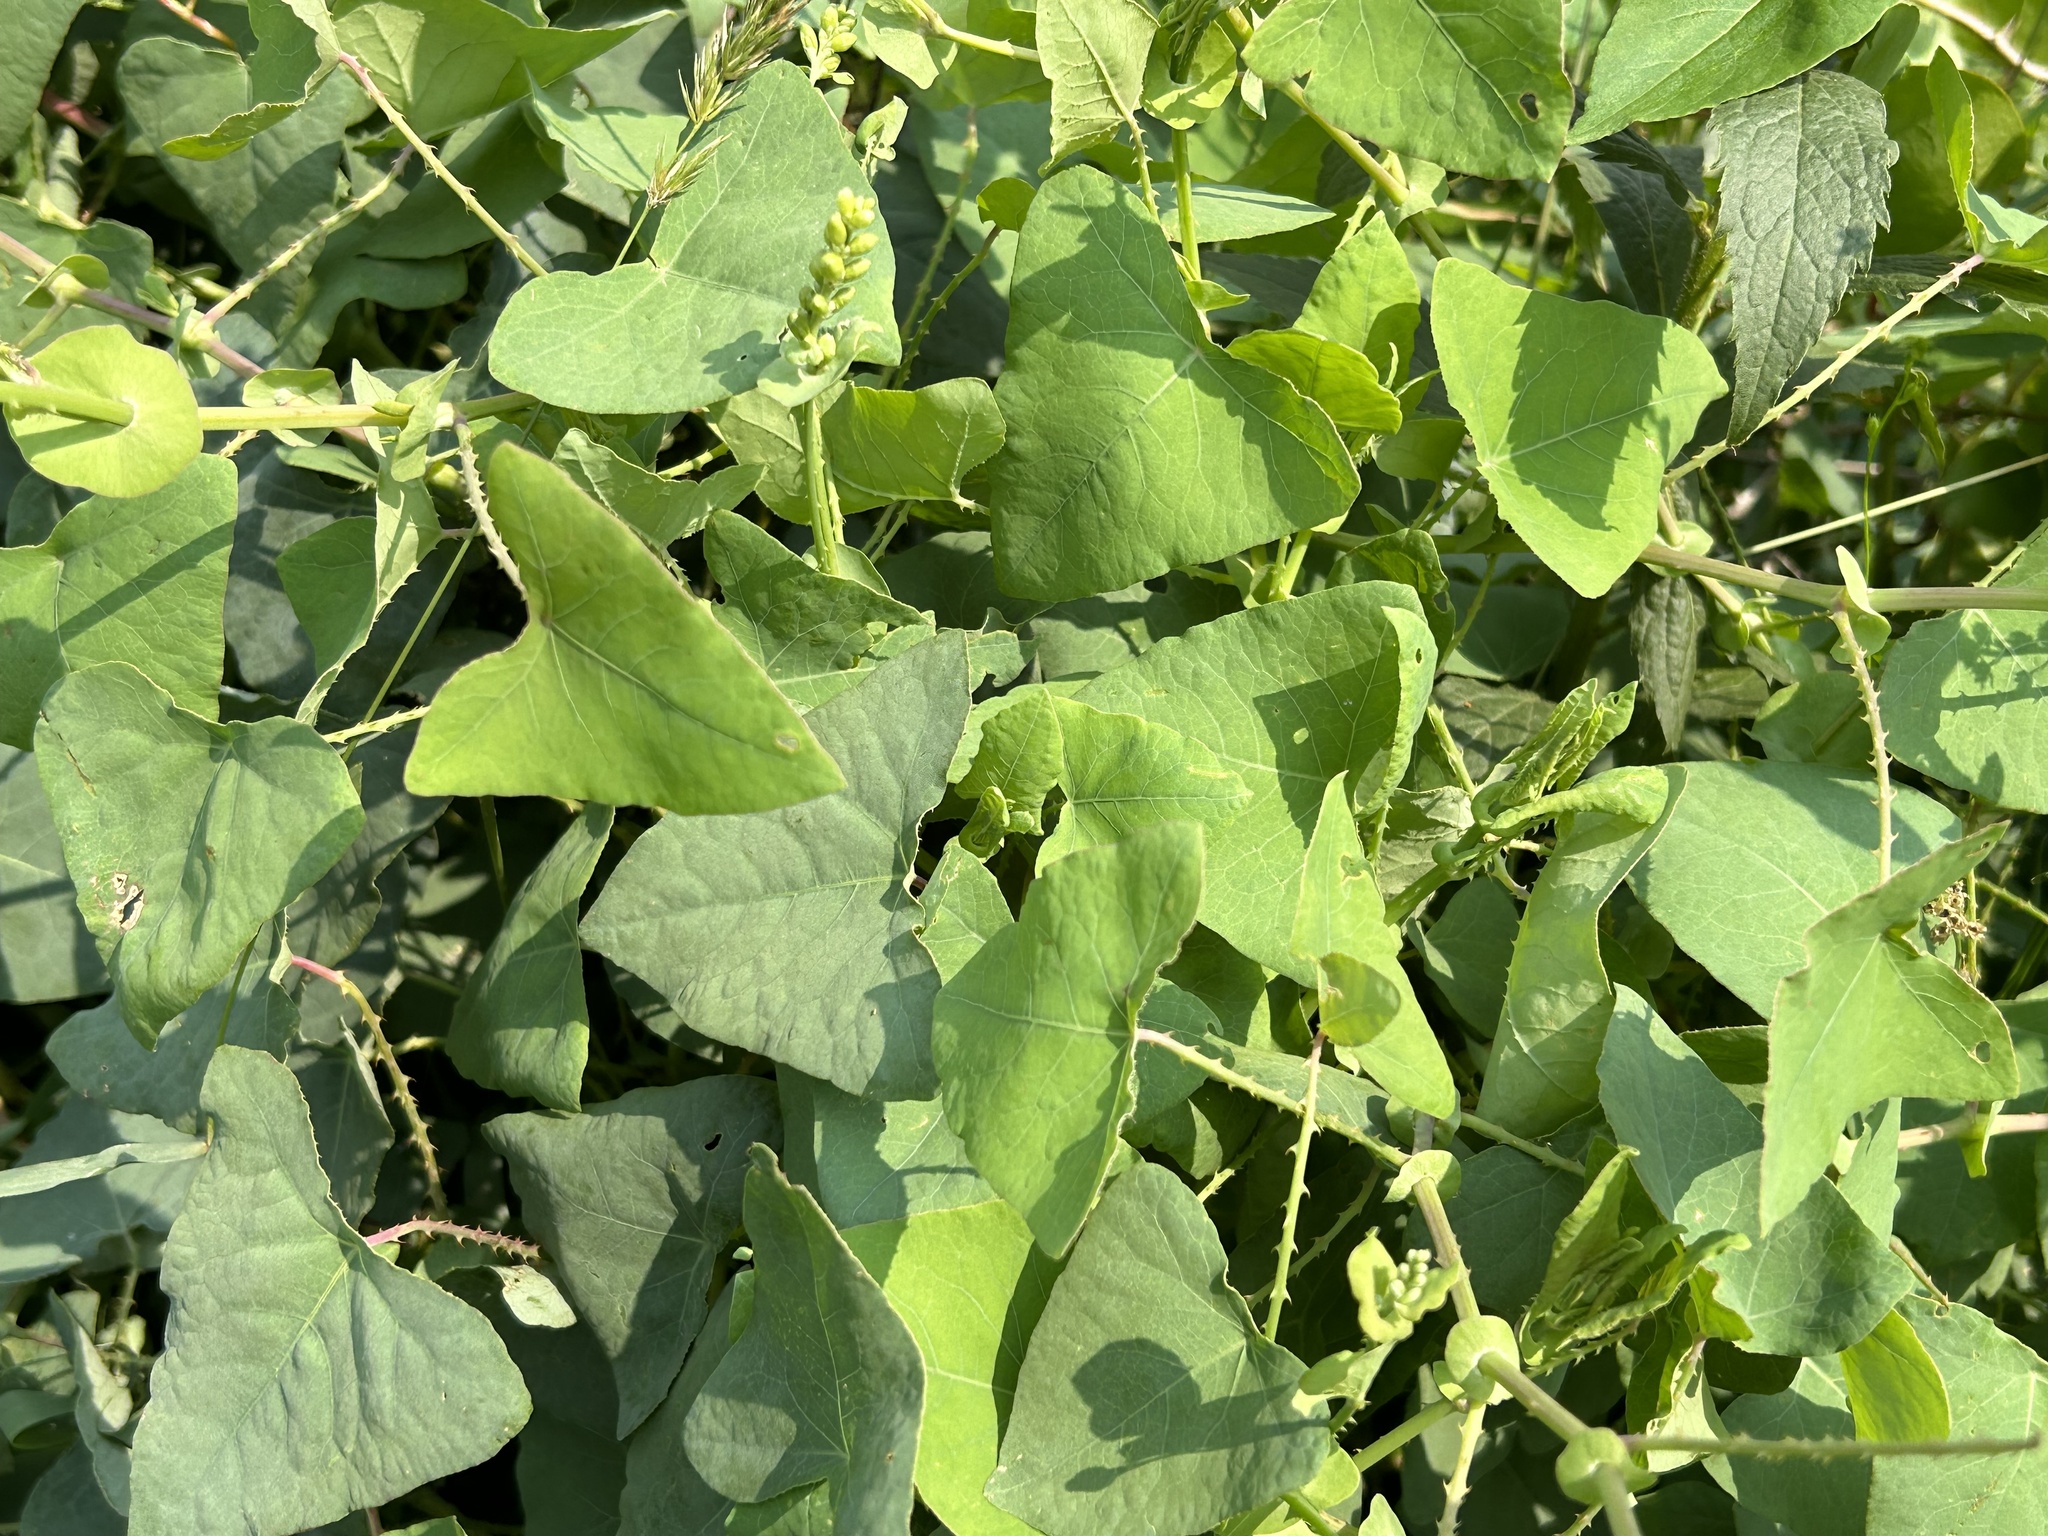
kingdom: Plantae
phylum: Tracheophyta
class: Magnoliopsida
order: Caryophyllales
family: Polygonaceae
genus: Persicaria
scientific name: Persicaria perfoliata
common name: Asiatic tearthumb
